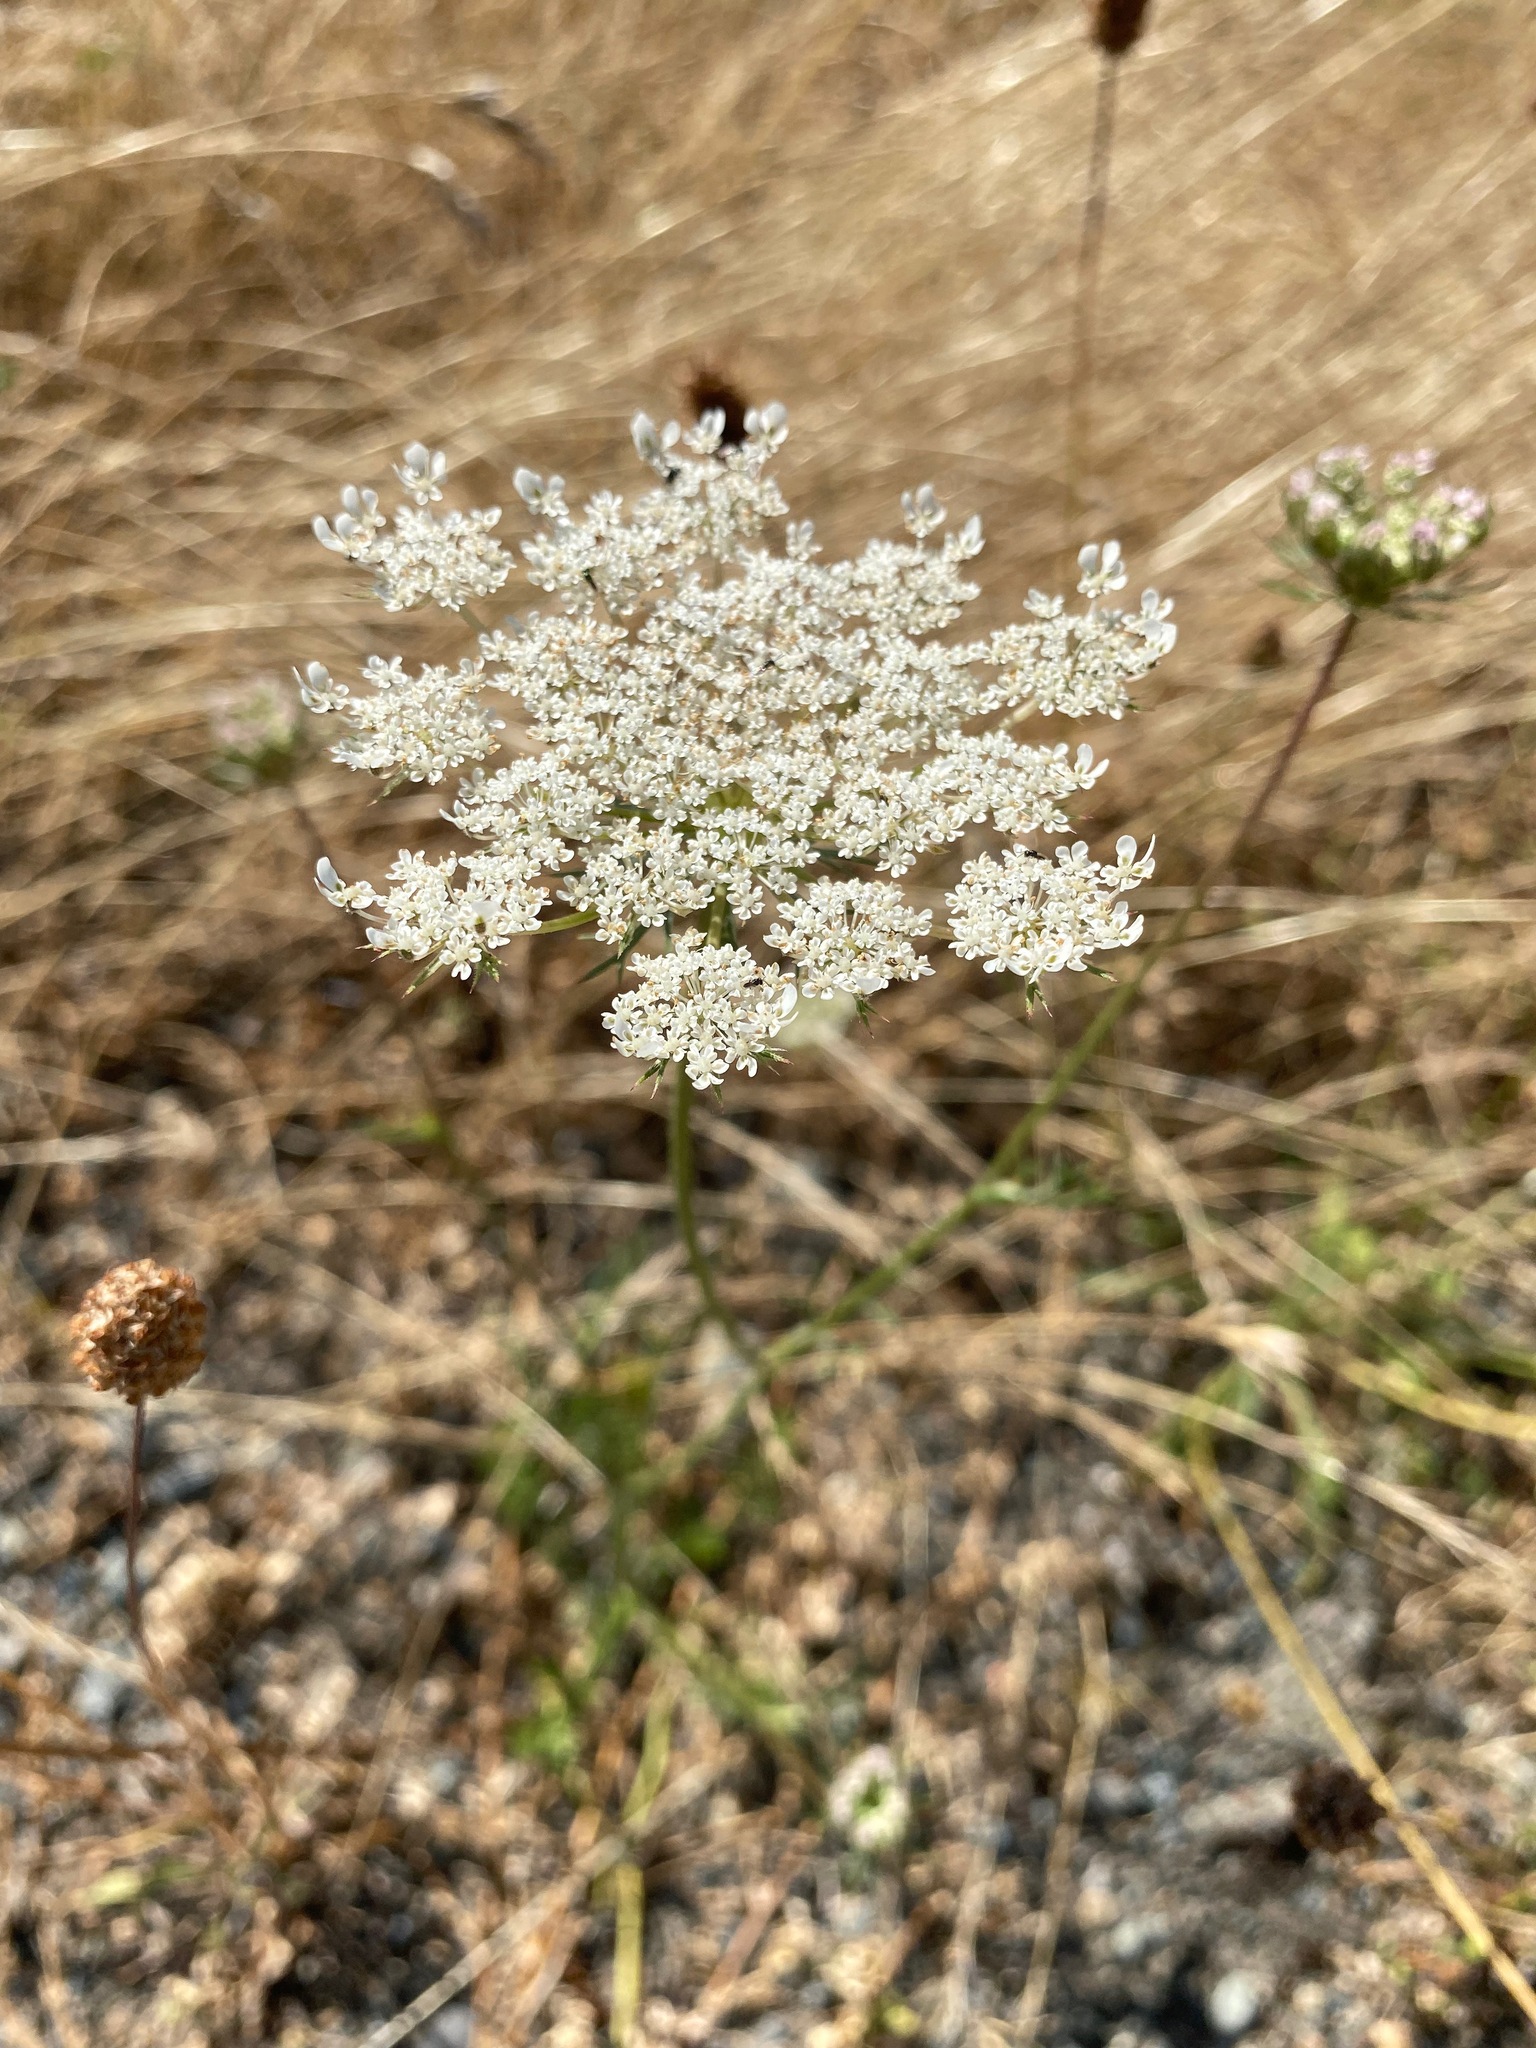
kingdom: Plantae
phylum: Tracheophyta
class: Magnoliopsida
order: Apiales
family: Apiaceae
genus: Daucus
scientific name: Daucus carota
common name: Wild carrot
